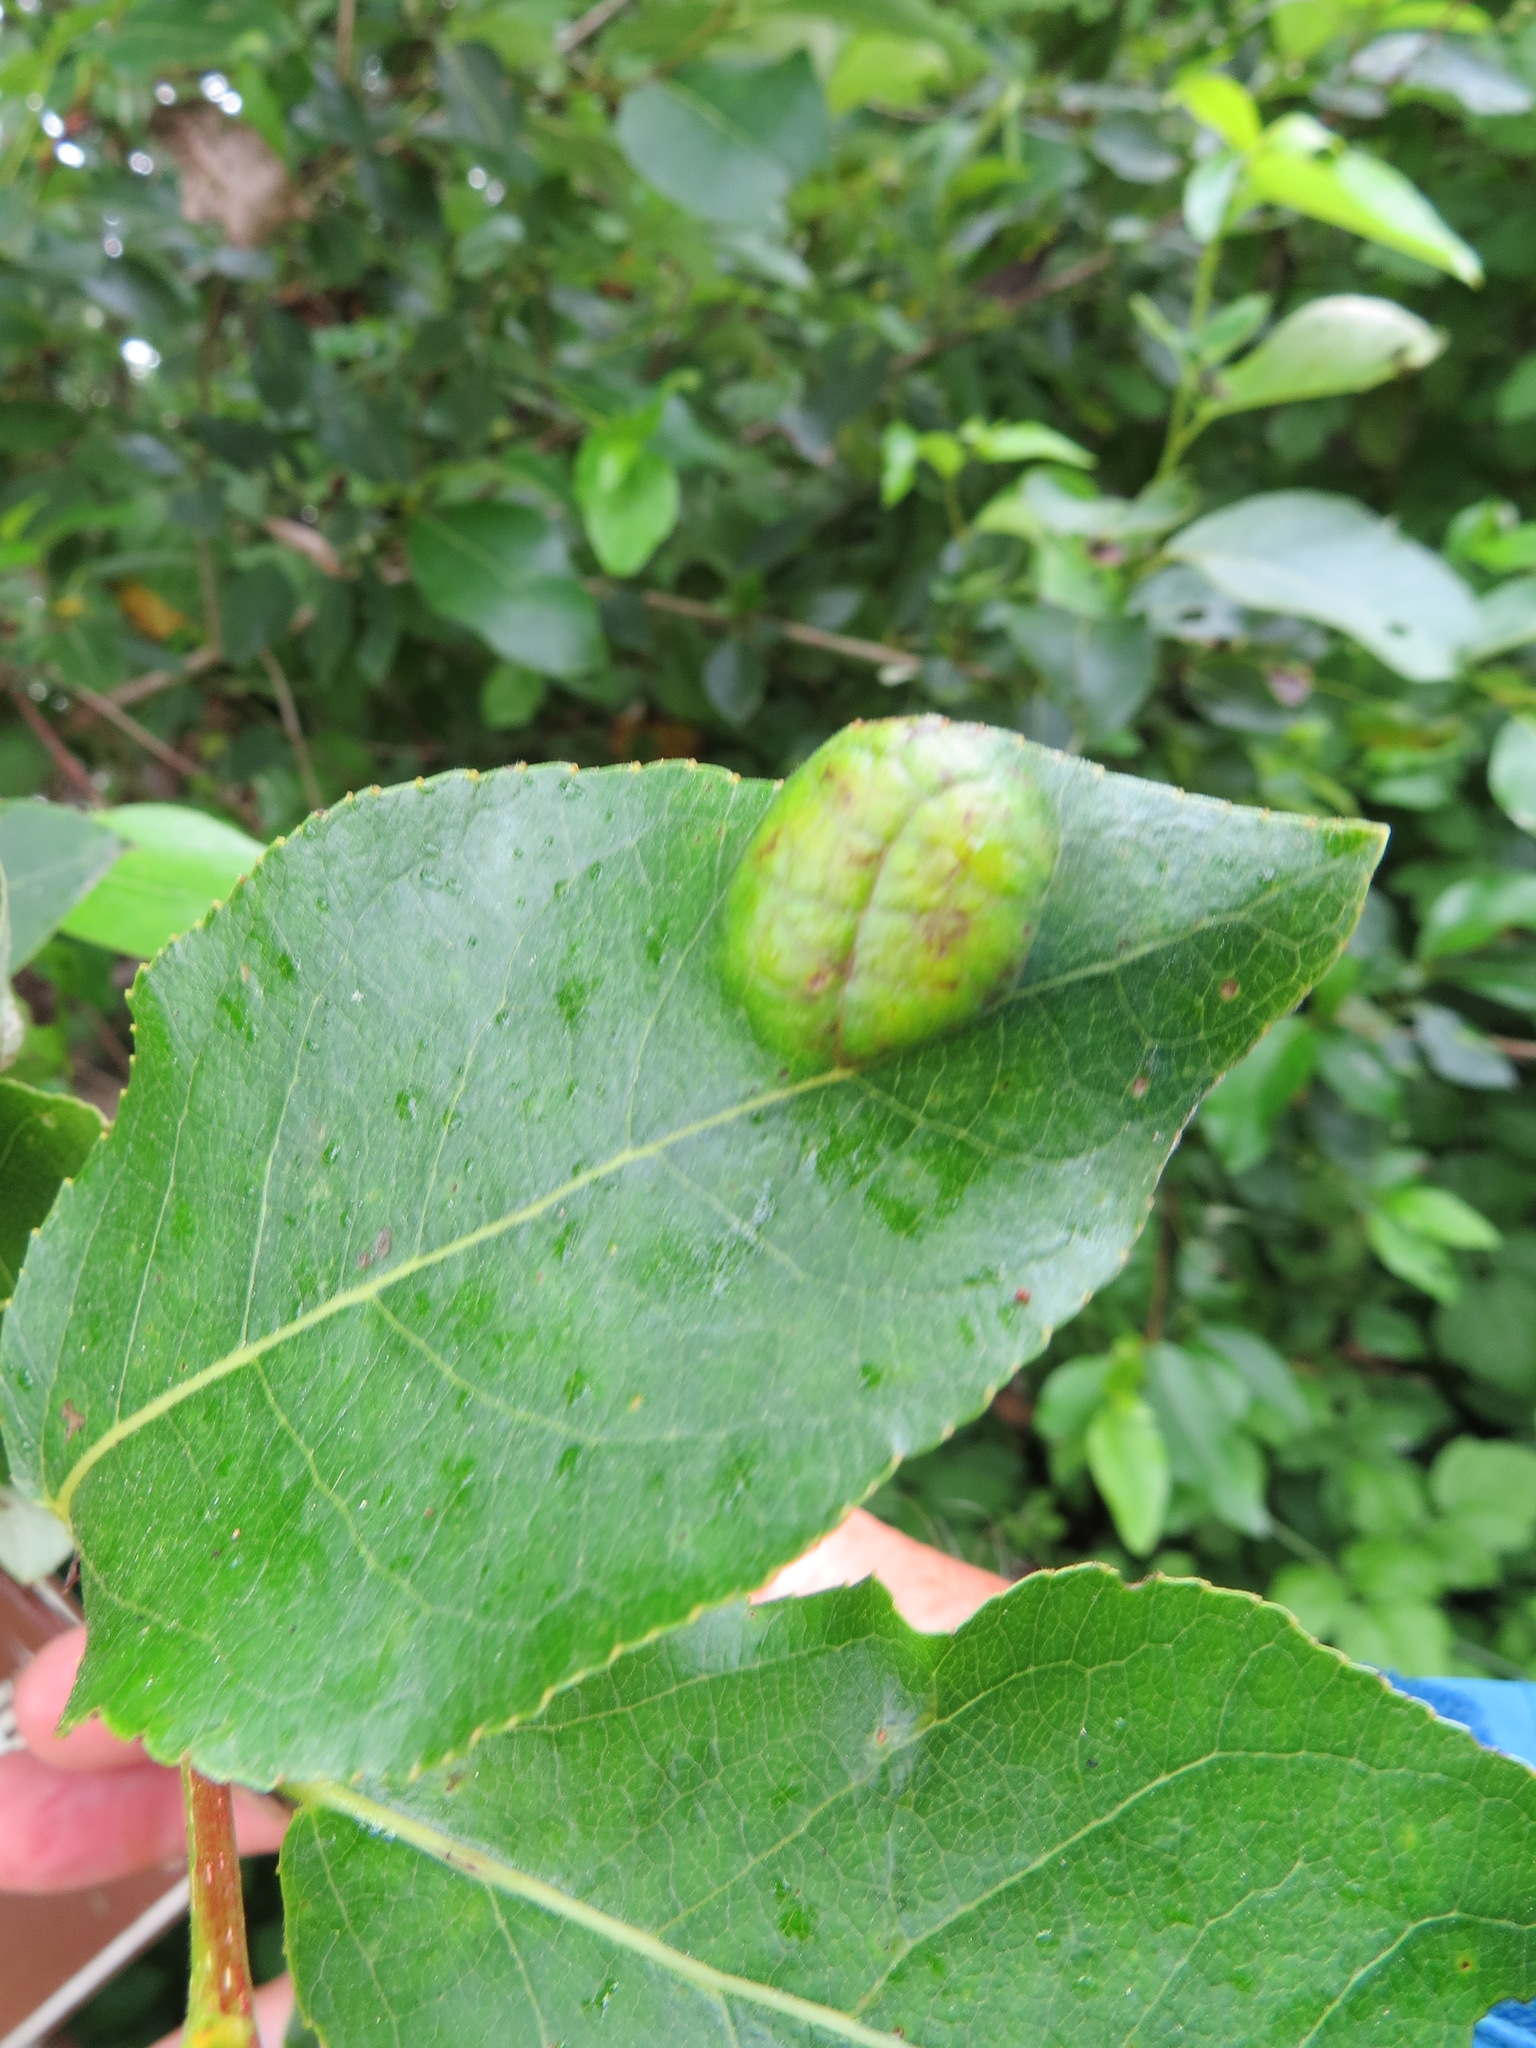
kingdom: Fungi
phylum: Ascomycota
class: Taphrinomycetes
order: Taphrinales
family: Taphrinaceae
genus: Taphrina
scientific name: Taphrina populi-salicis
